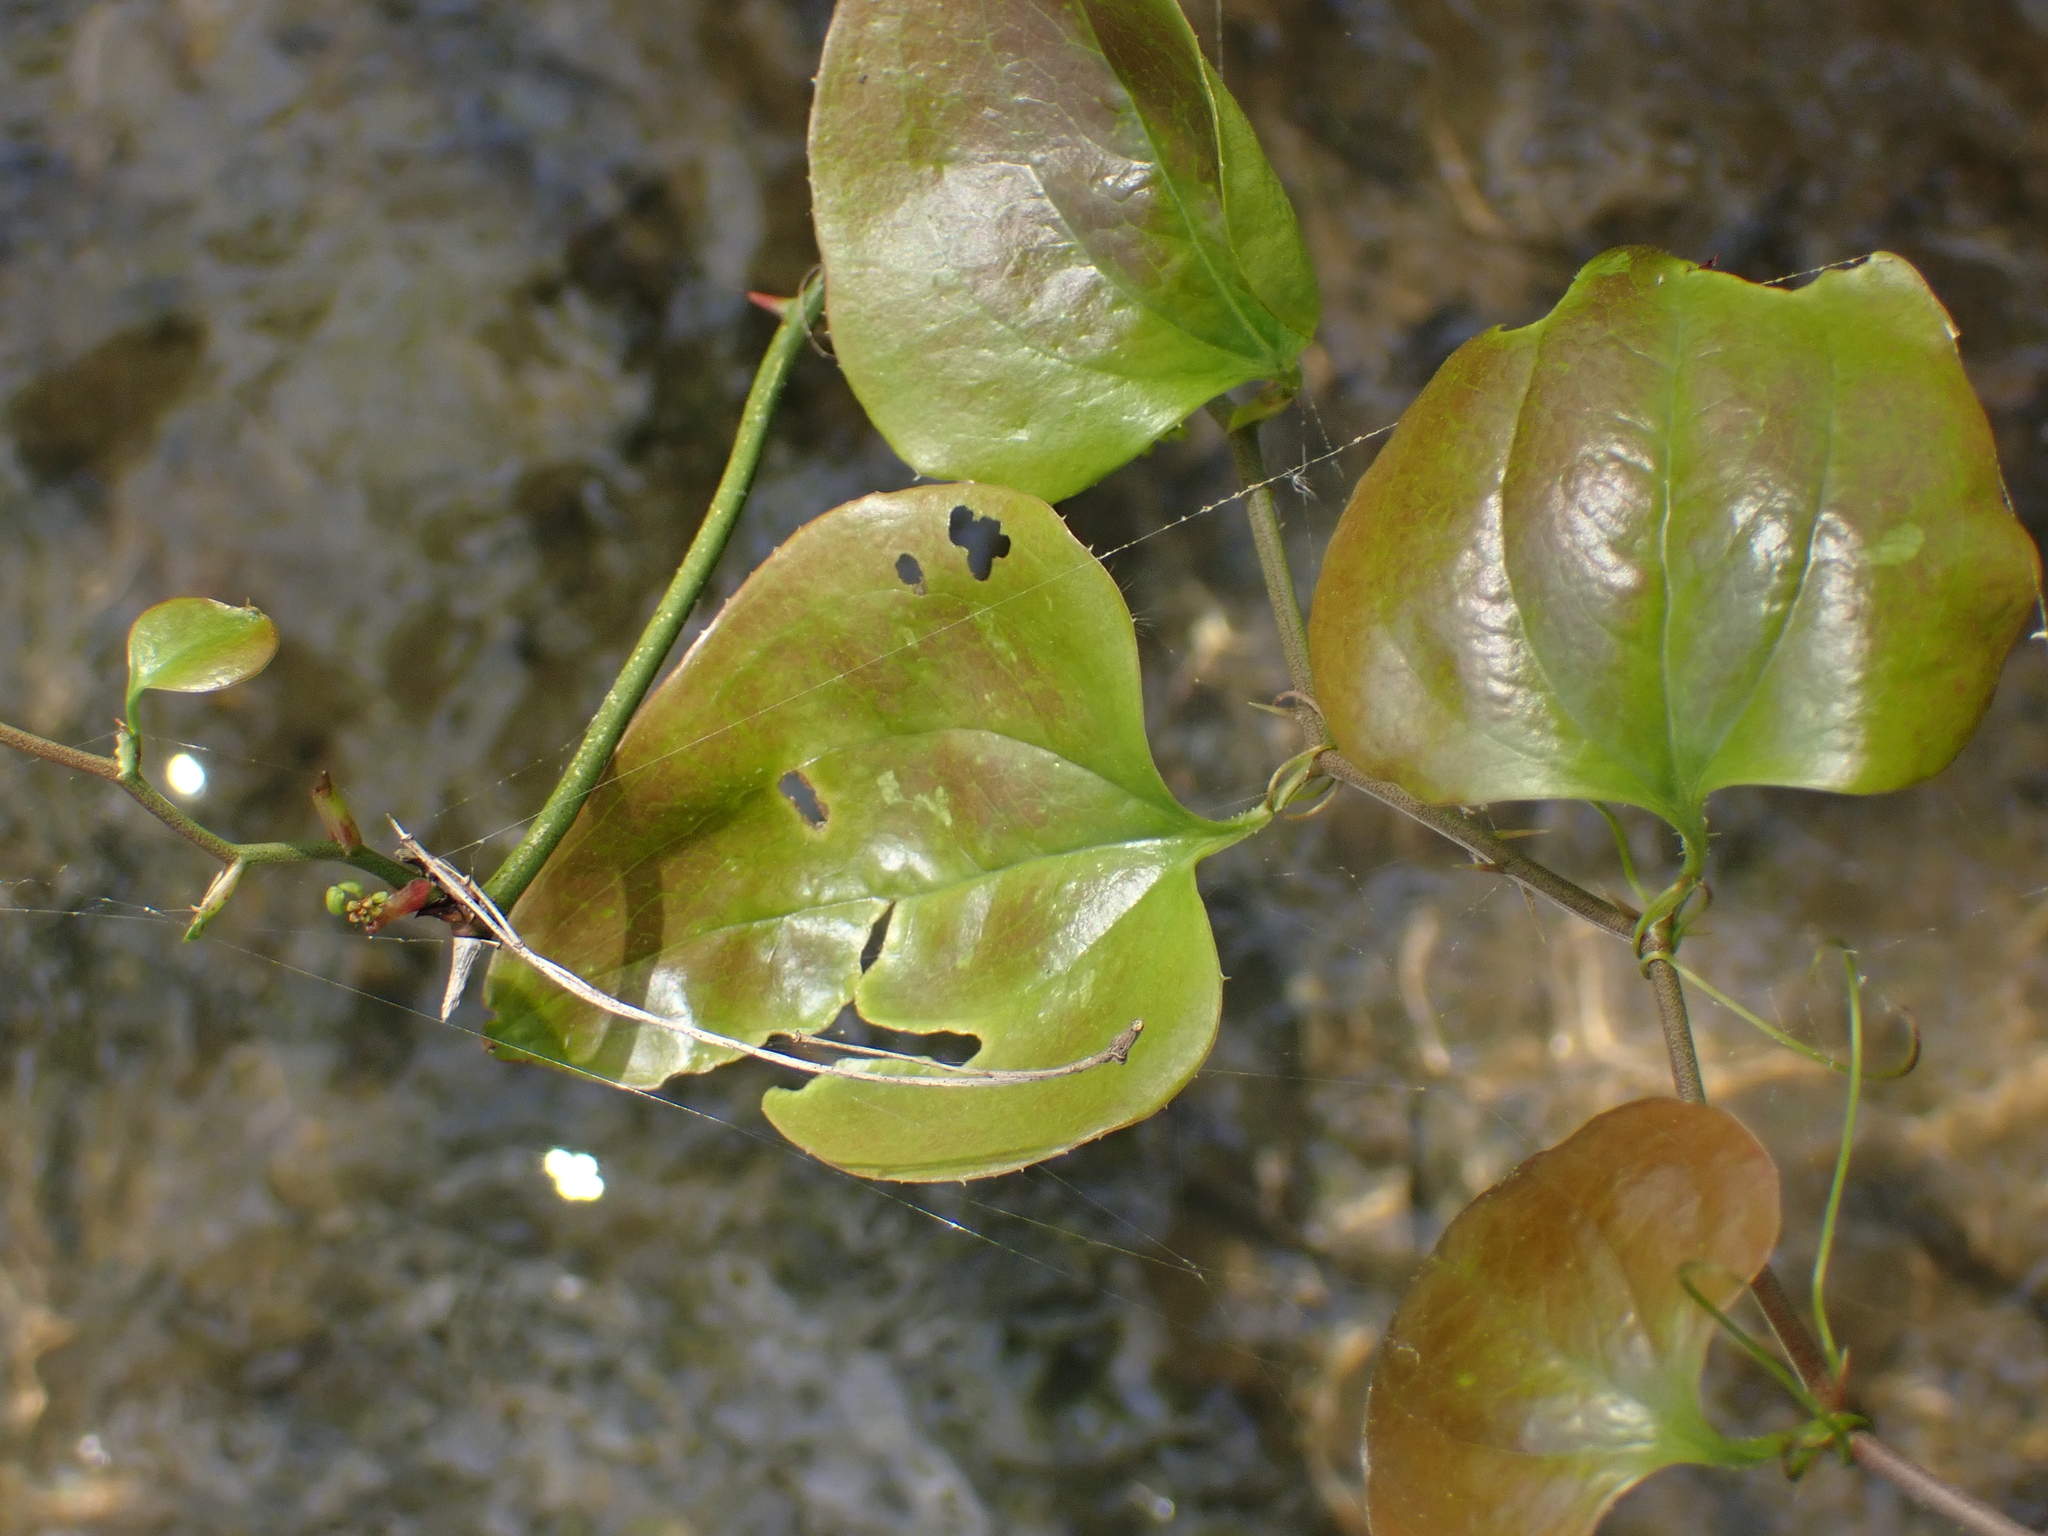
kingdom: Plantae
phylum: Tracheophyta
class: Liliopsida
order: Liliales
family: Smilacaceae
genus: Smilax
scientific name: Smilax rotundifolia
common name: Bullbriar
